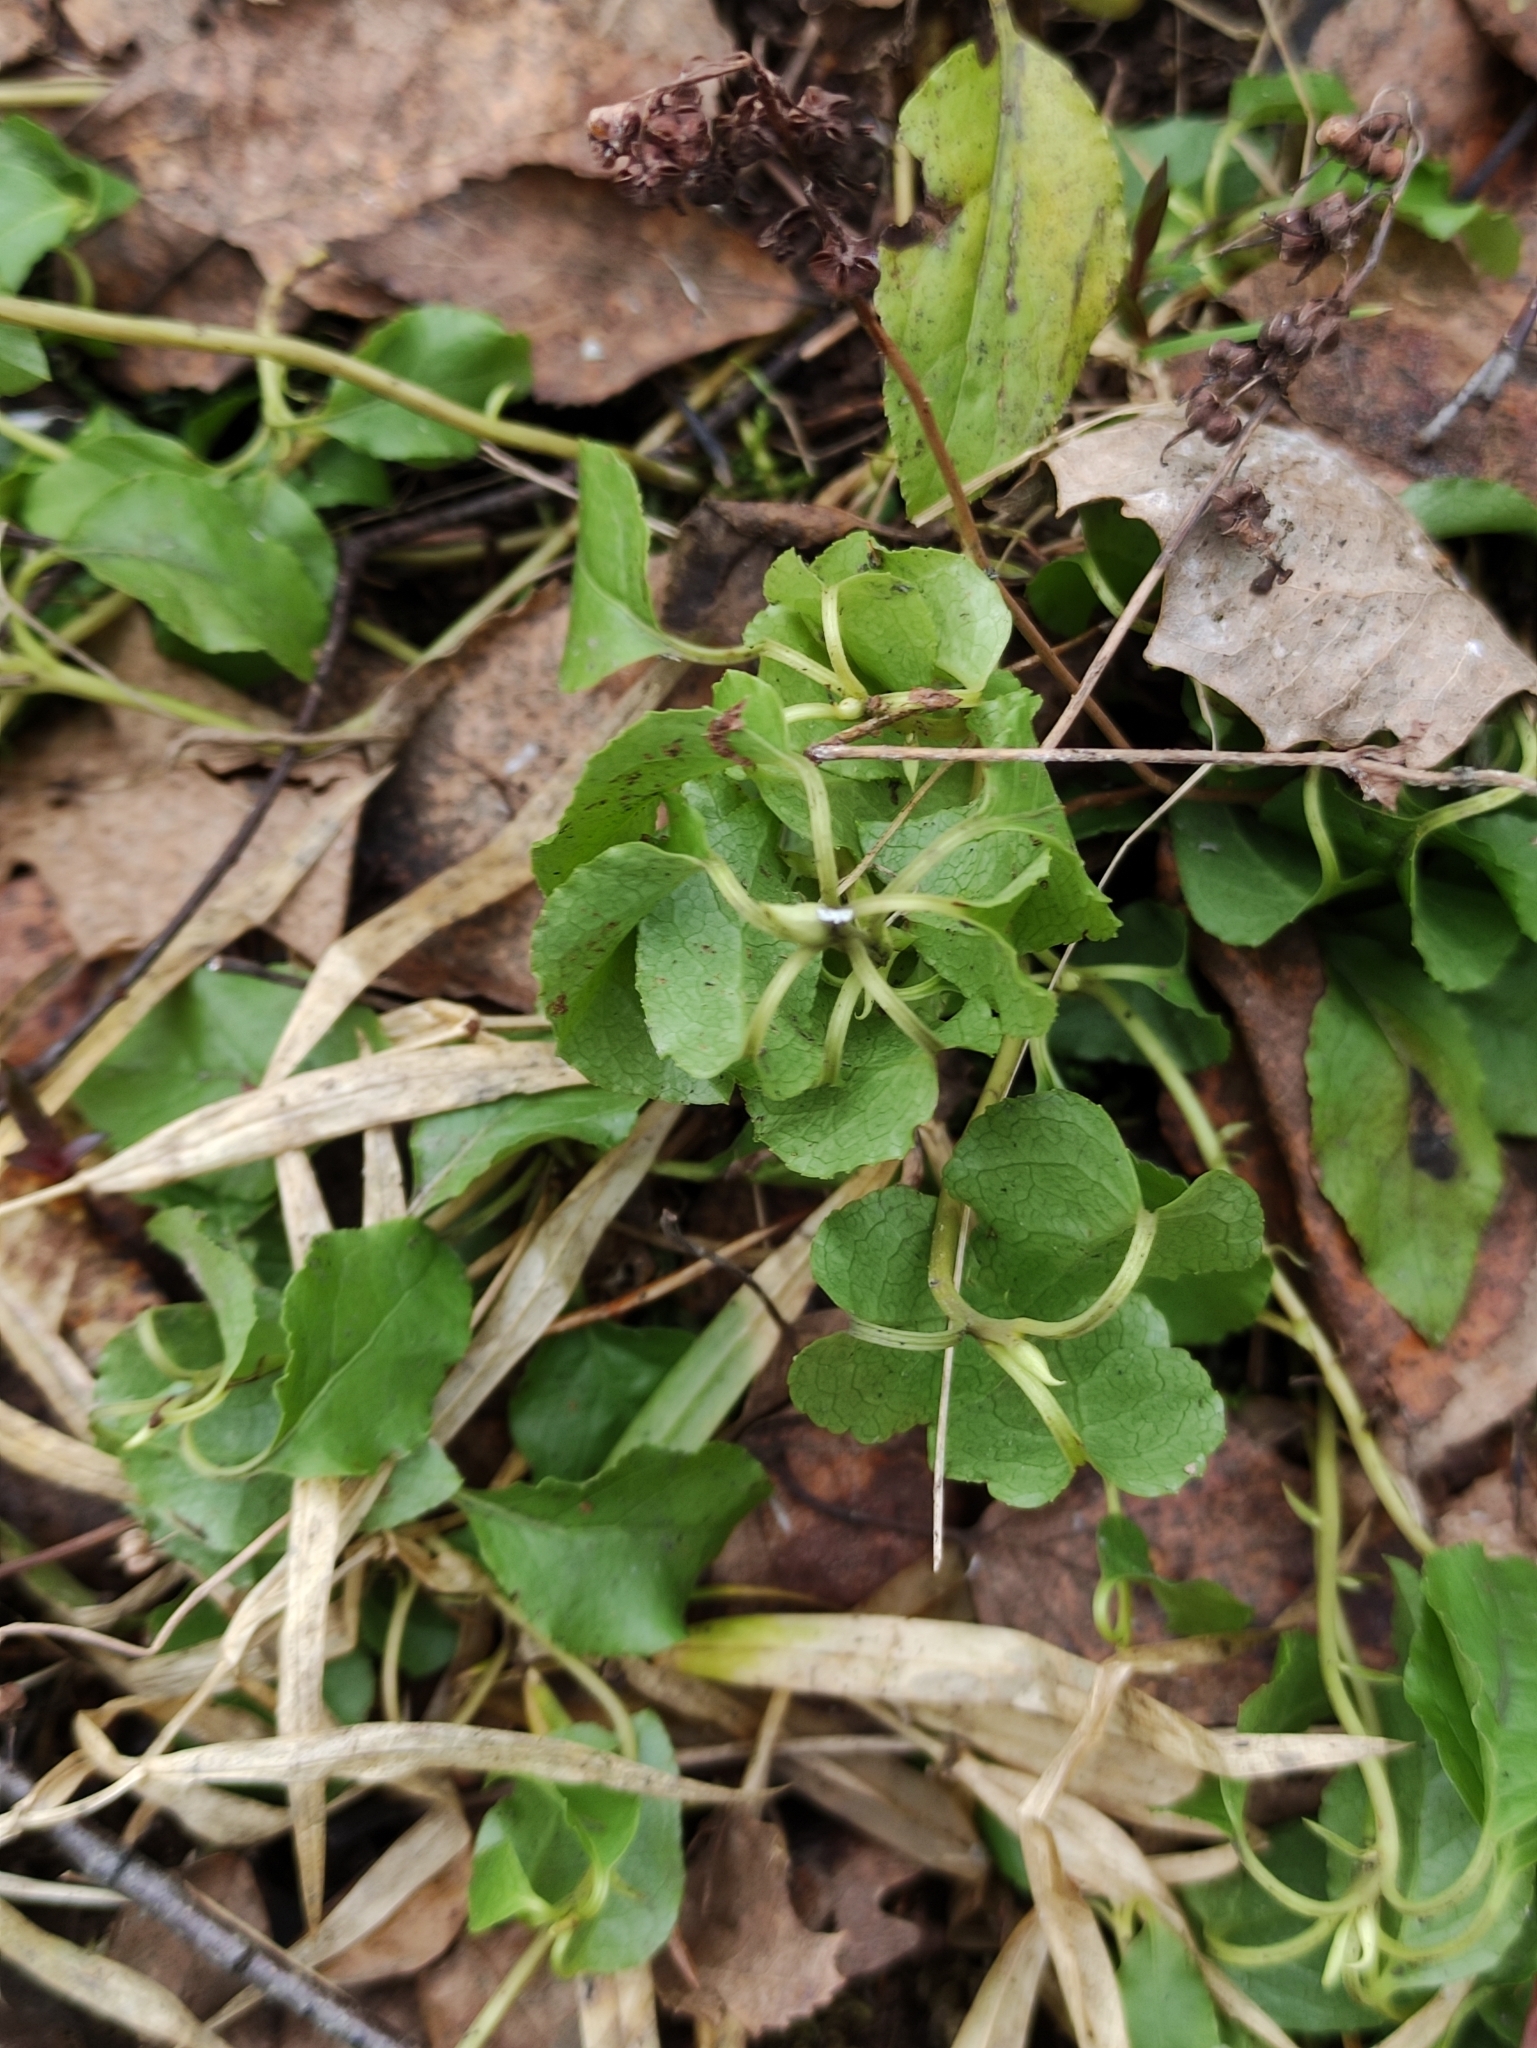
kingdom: Plantae
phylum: Tracheophyta
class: Magnoliopsida
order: Ericales
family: Ericaceae
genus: Orthilia
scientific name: Orthilia secunda
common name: One-sided orthilia
